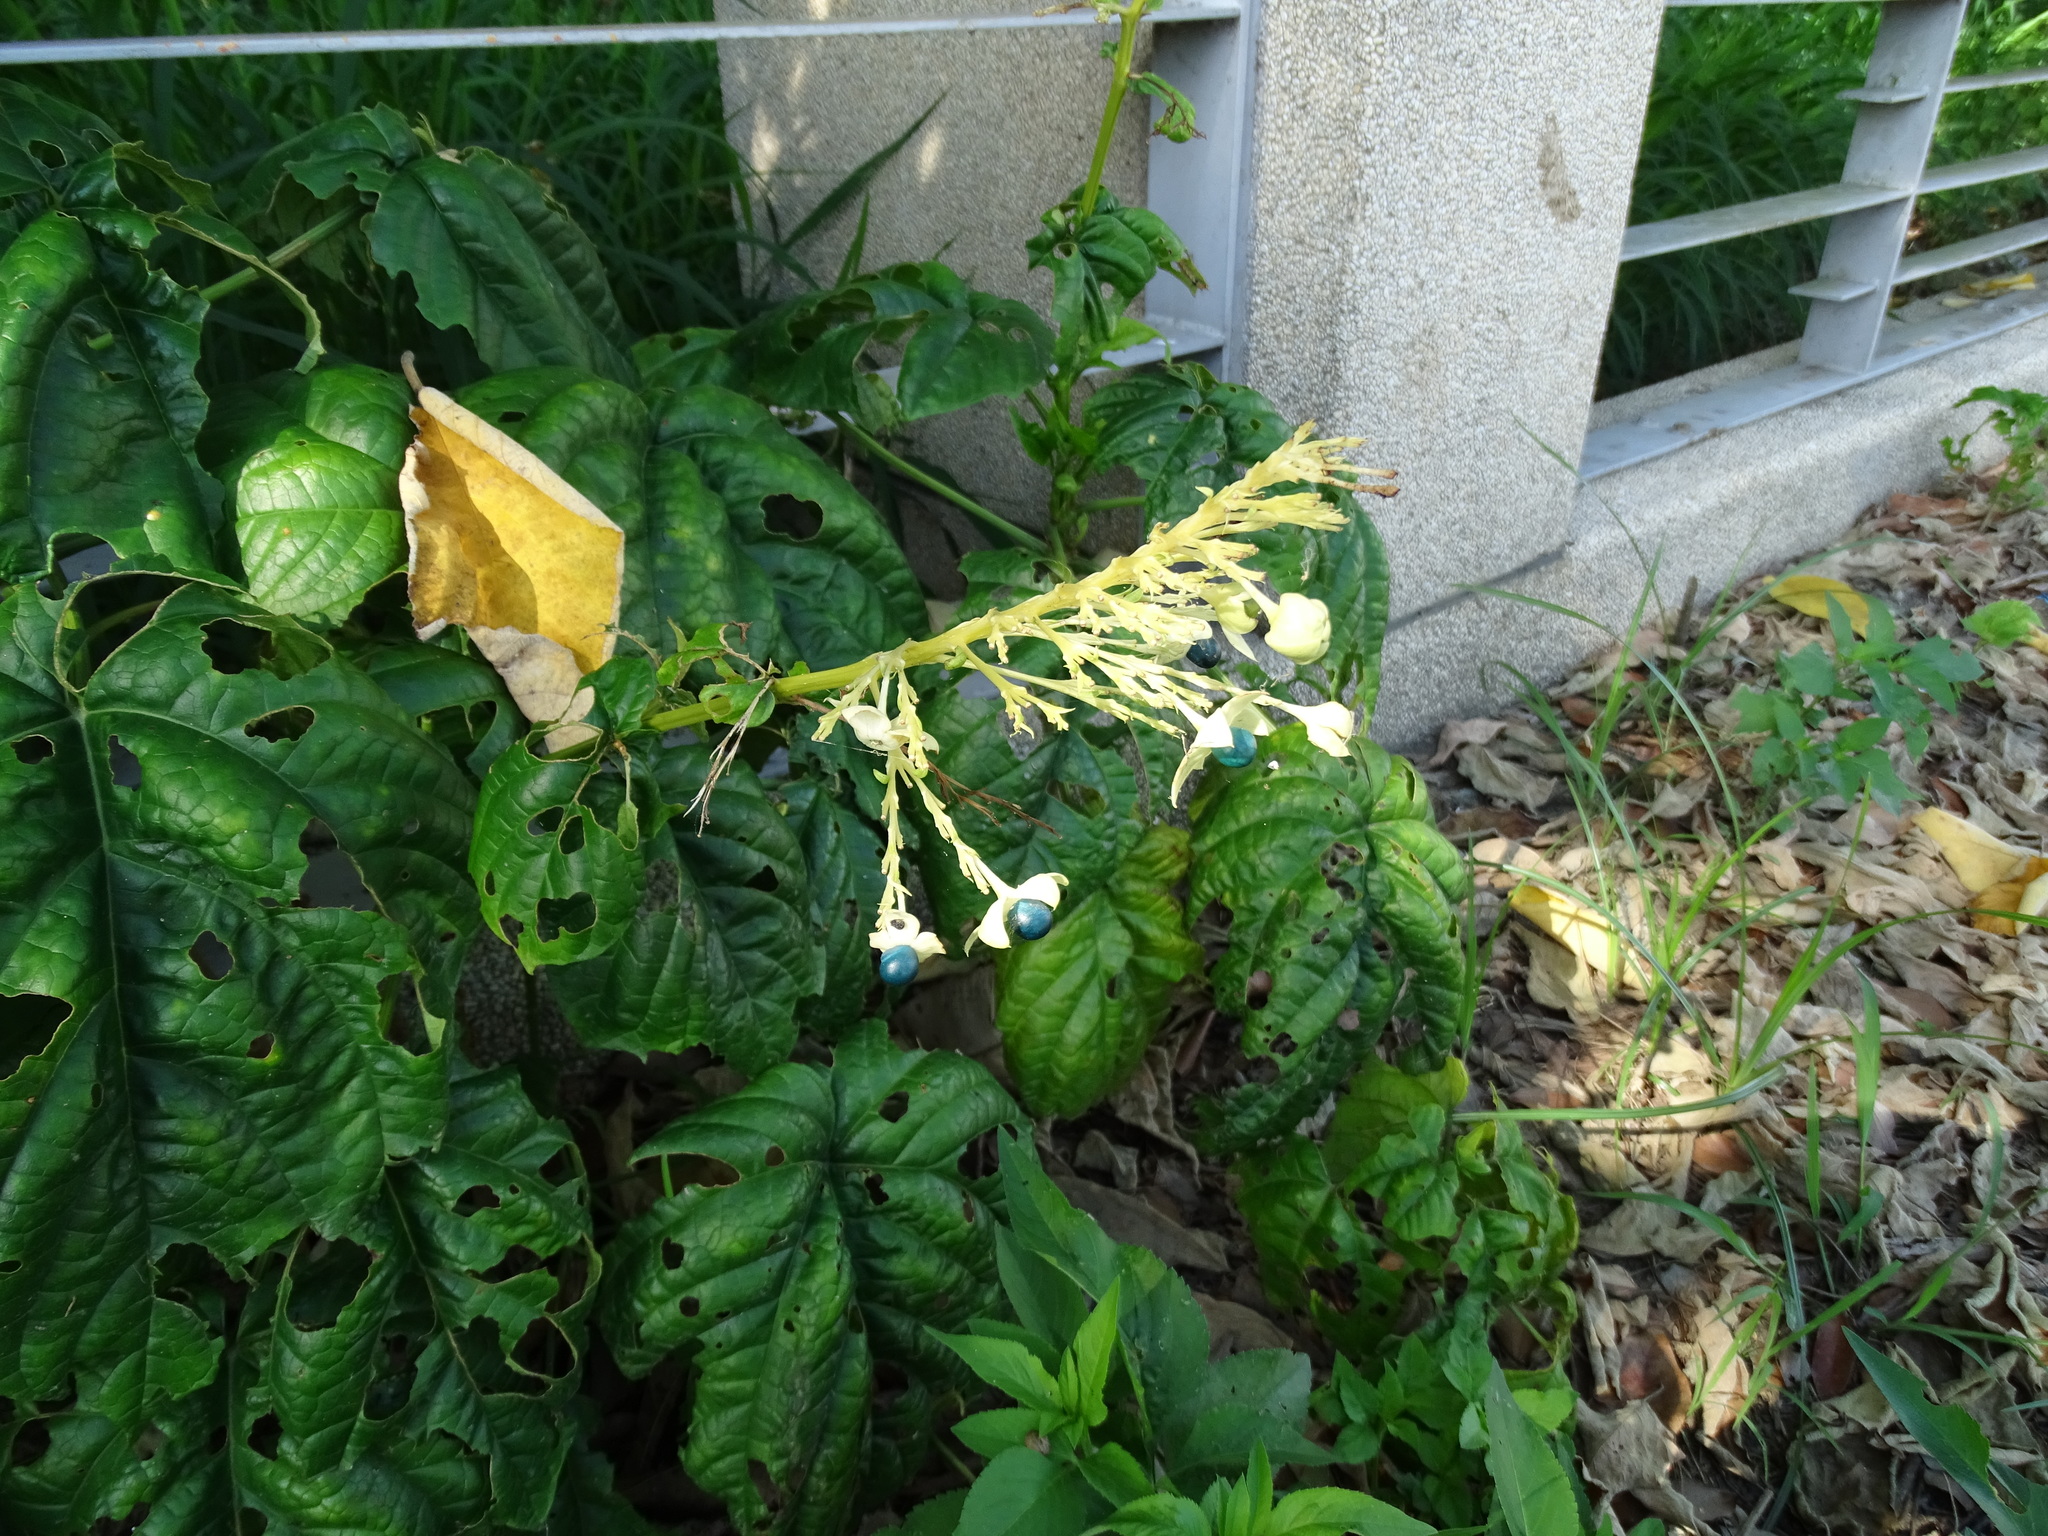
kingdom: Plantae
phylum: Tracheophyta
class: Magnoliopsida
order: Lamiales
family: Lamiaceae
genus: Clerodendrum
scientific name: Clerodendrum japonicum
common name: Japanese glorybower
